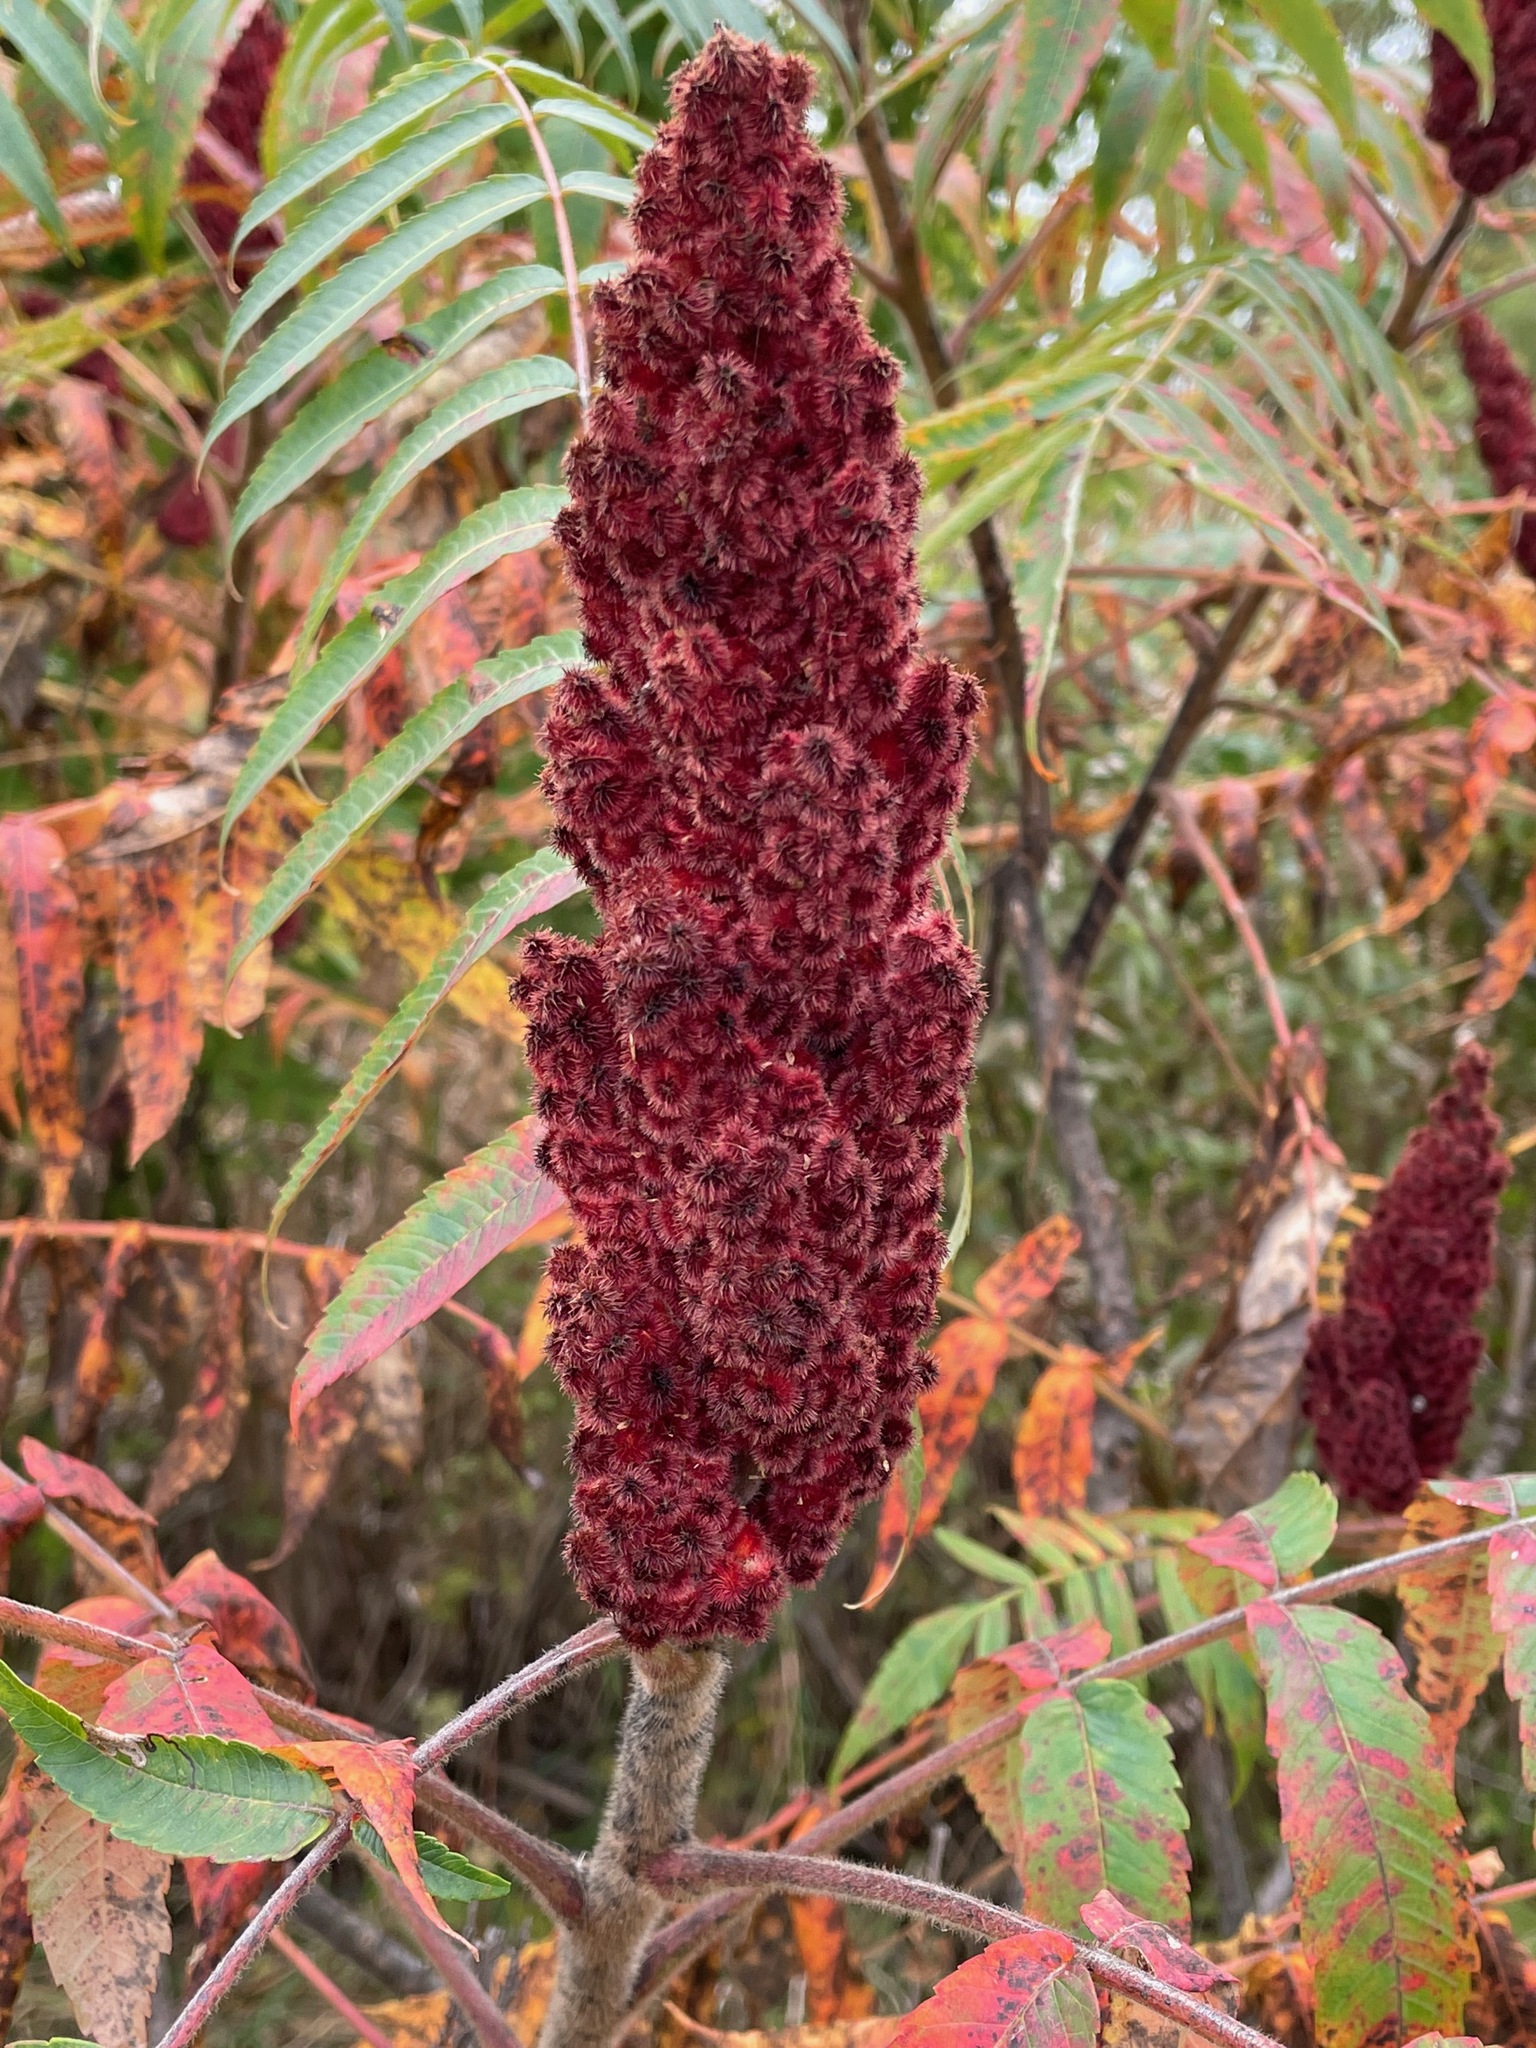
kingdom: Plantae
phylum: Tracheophyta
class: Magnoliopsida
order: Sapindales
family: Anacardiaceae
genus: Rhus
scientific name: Rhus typhina
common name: Staghorn sumac
